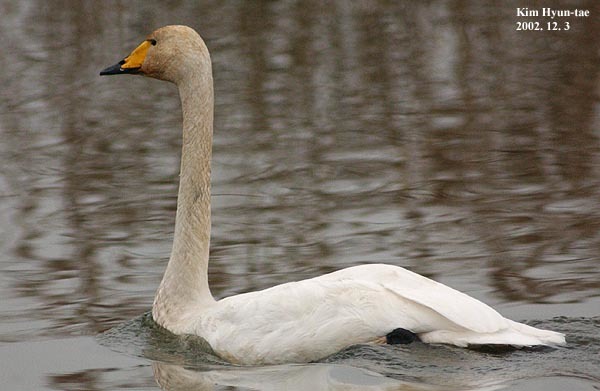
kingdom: Animalia
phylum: Chordata
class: Aves
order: Anseriformes
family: Anatidae
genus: Cygnus
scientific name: Cygnus cygnus
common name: Whooper swan
